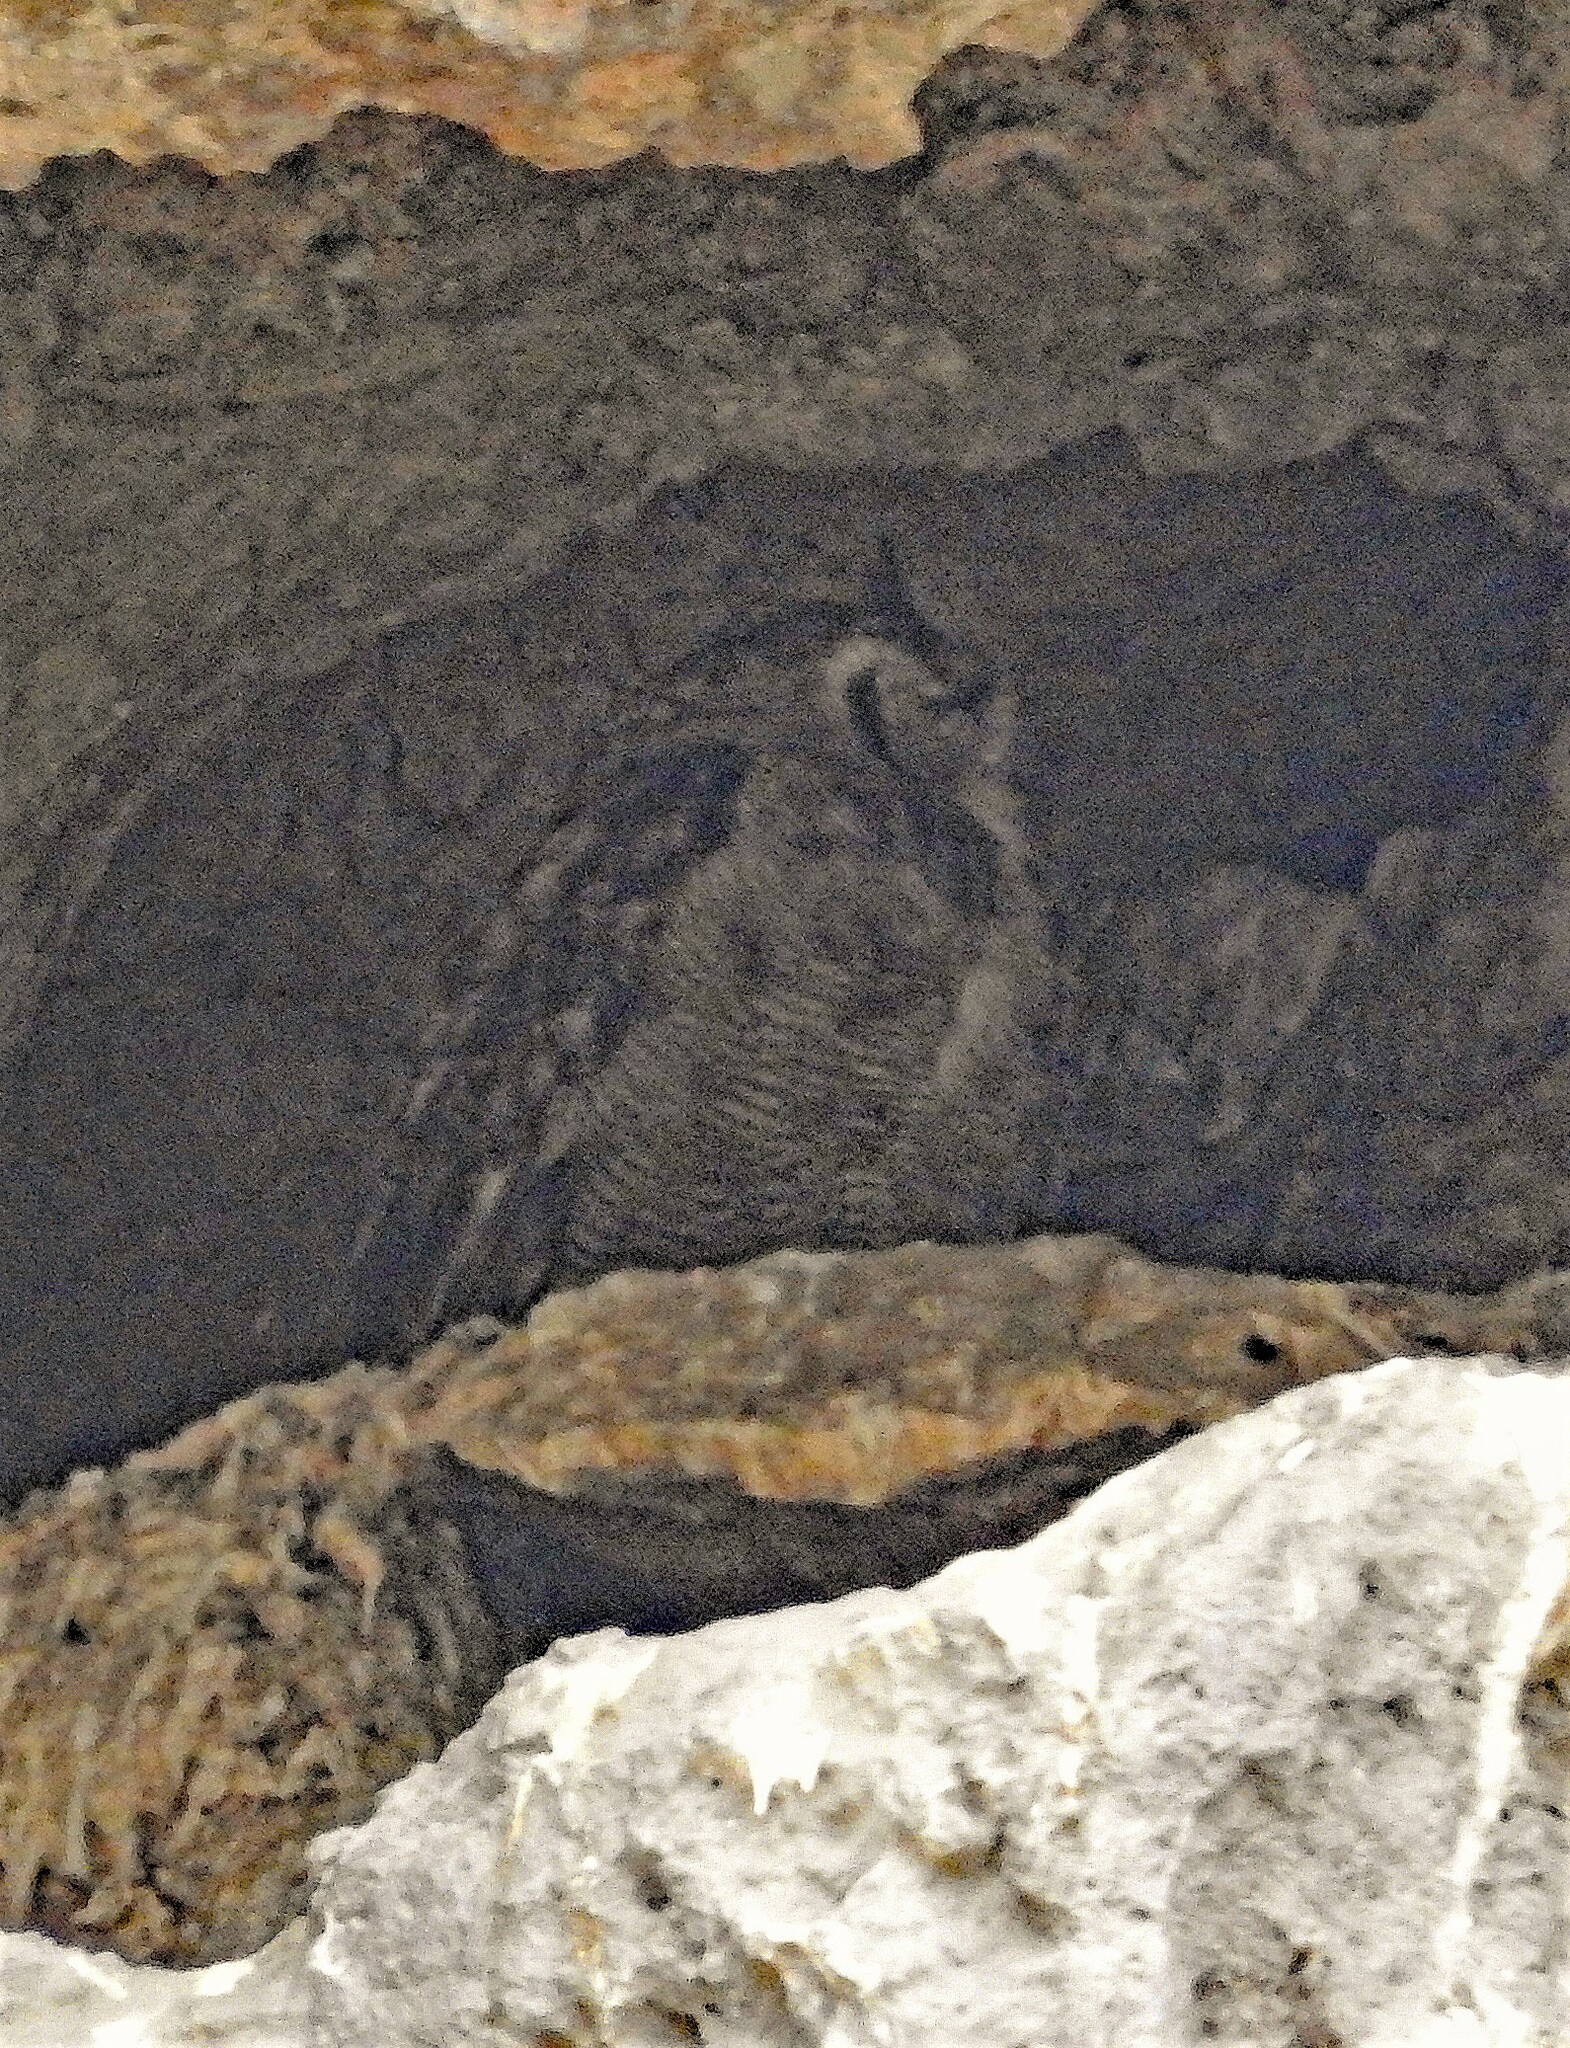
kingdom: Animalia
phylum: Chordata
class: Aves
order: Strigiformes
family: Strigidae
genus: Bubo
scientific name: Bubo magellanicus
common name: Lesser horned owl
